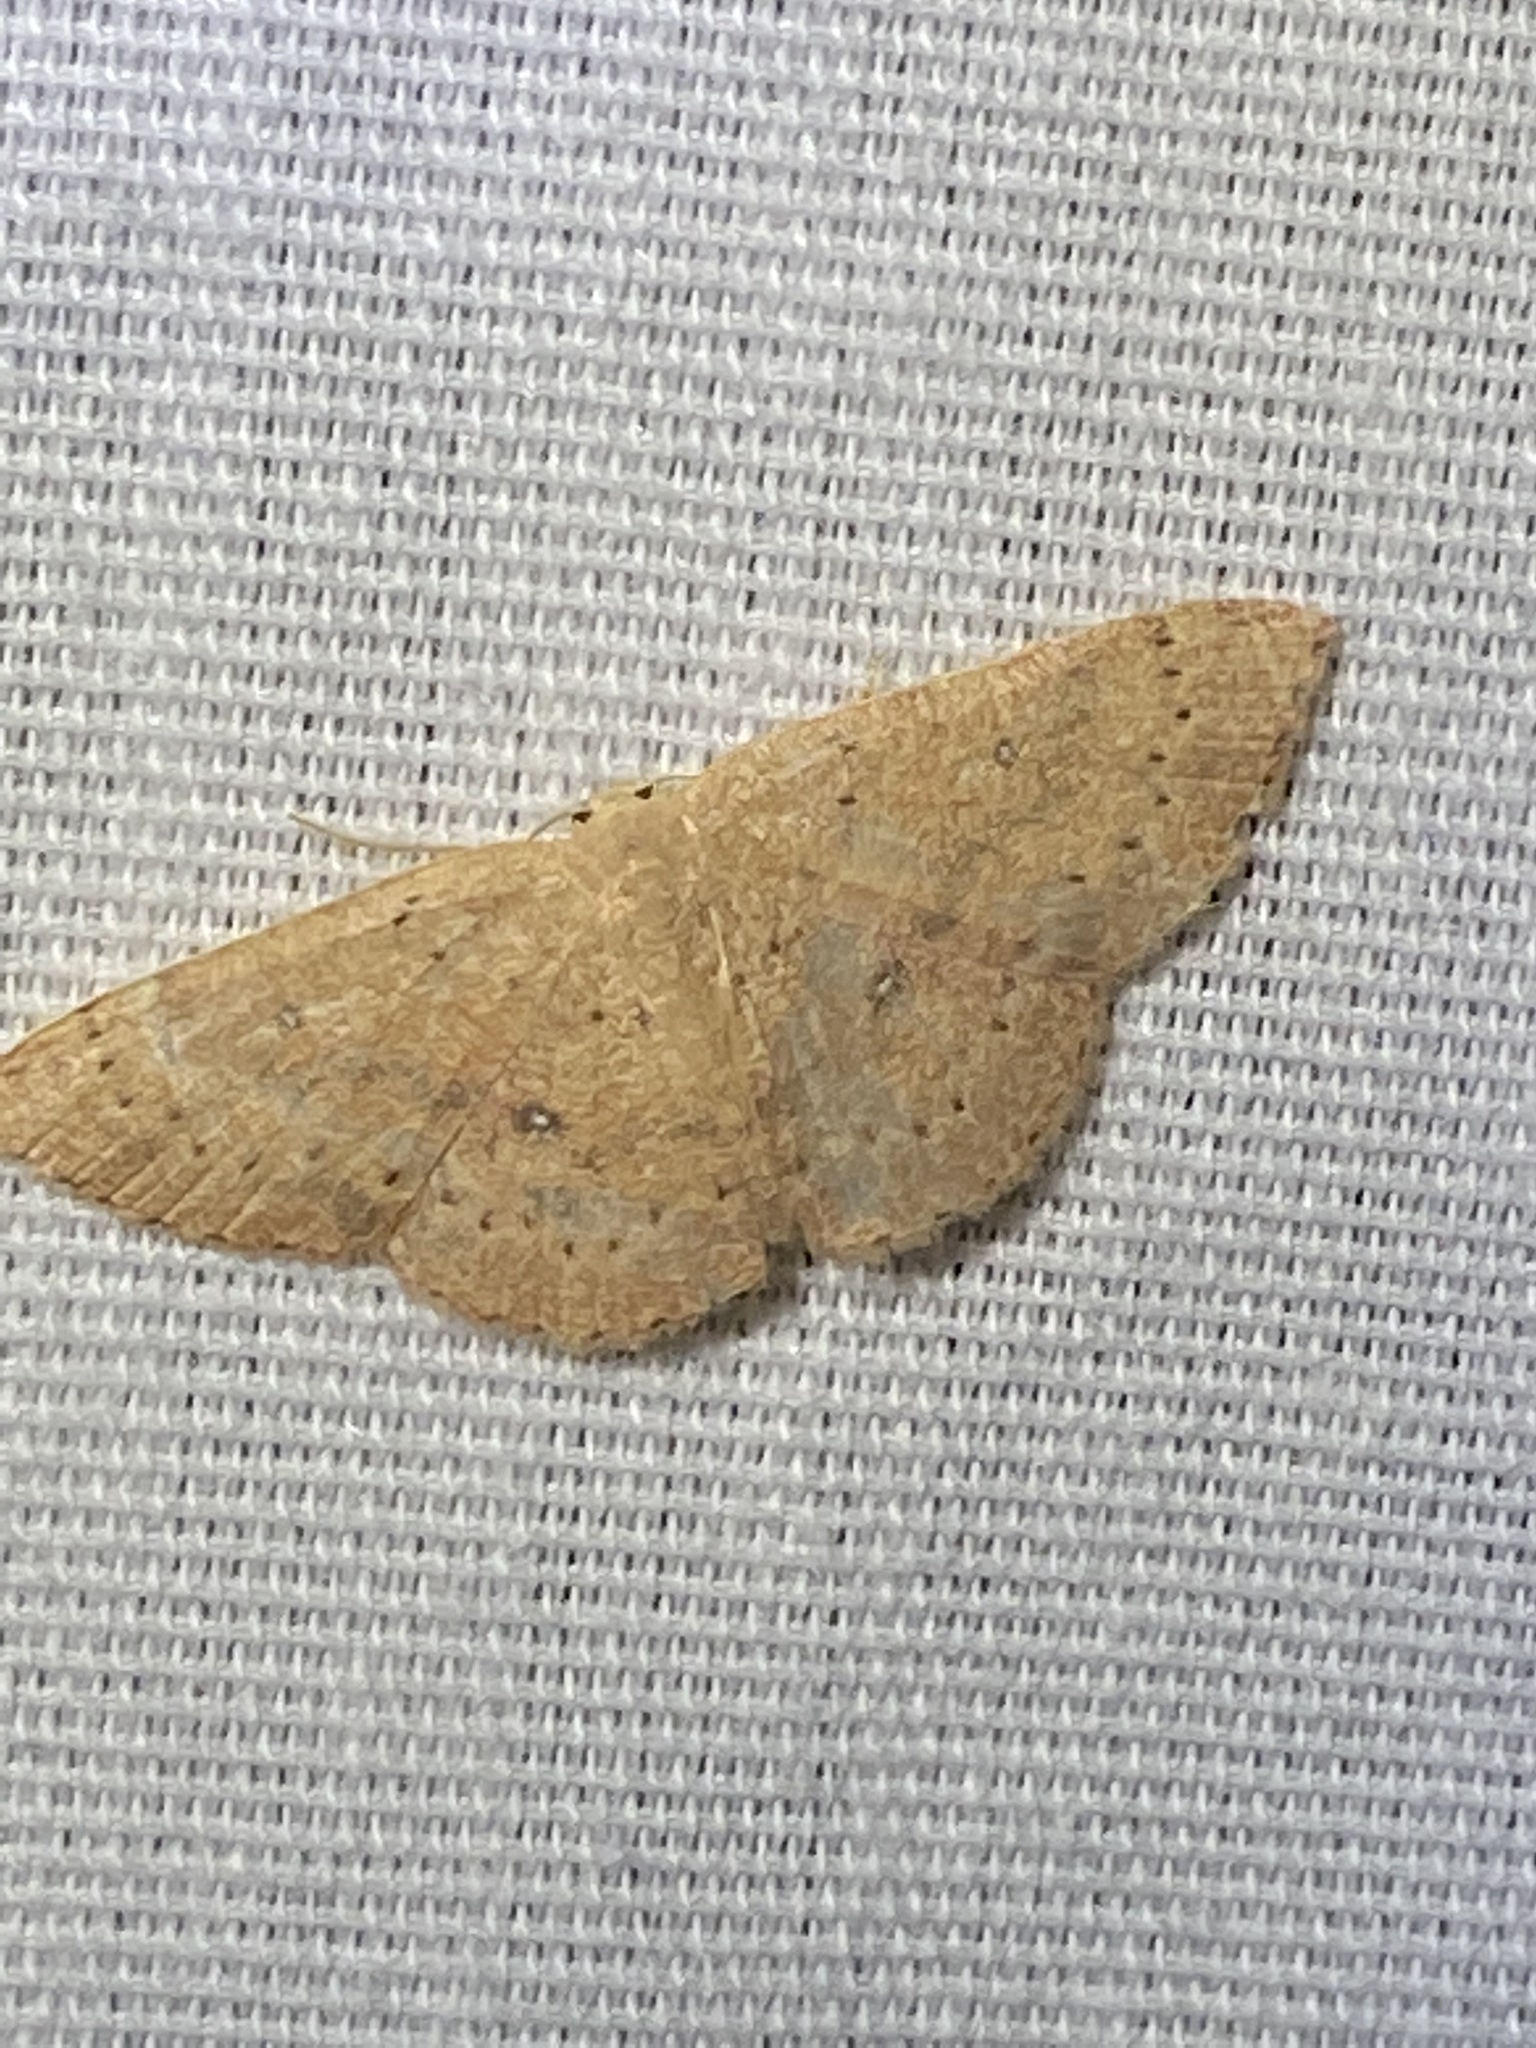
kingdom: Animalia
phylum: Arthropoda
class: Insecta
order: Lepidoptera
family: Geometridae
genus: Cyclophora
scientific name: Cyclophora packardi
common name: Packard's wave
